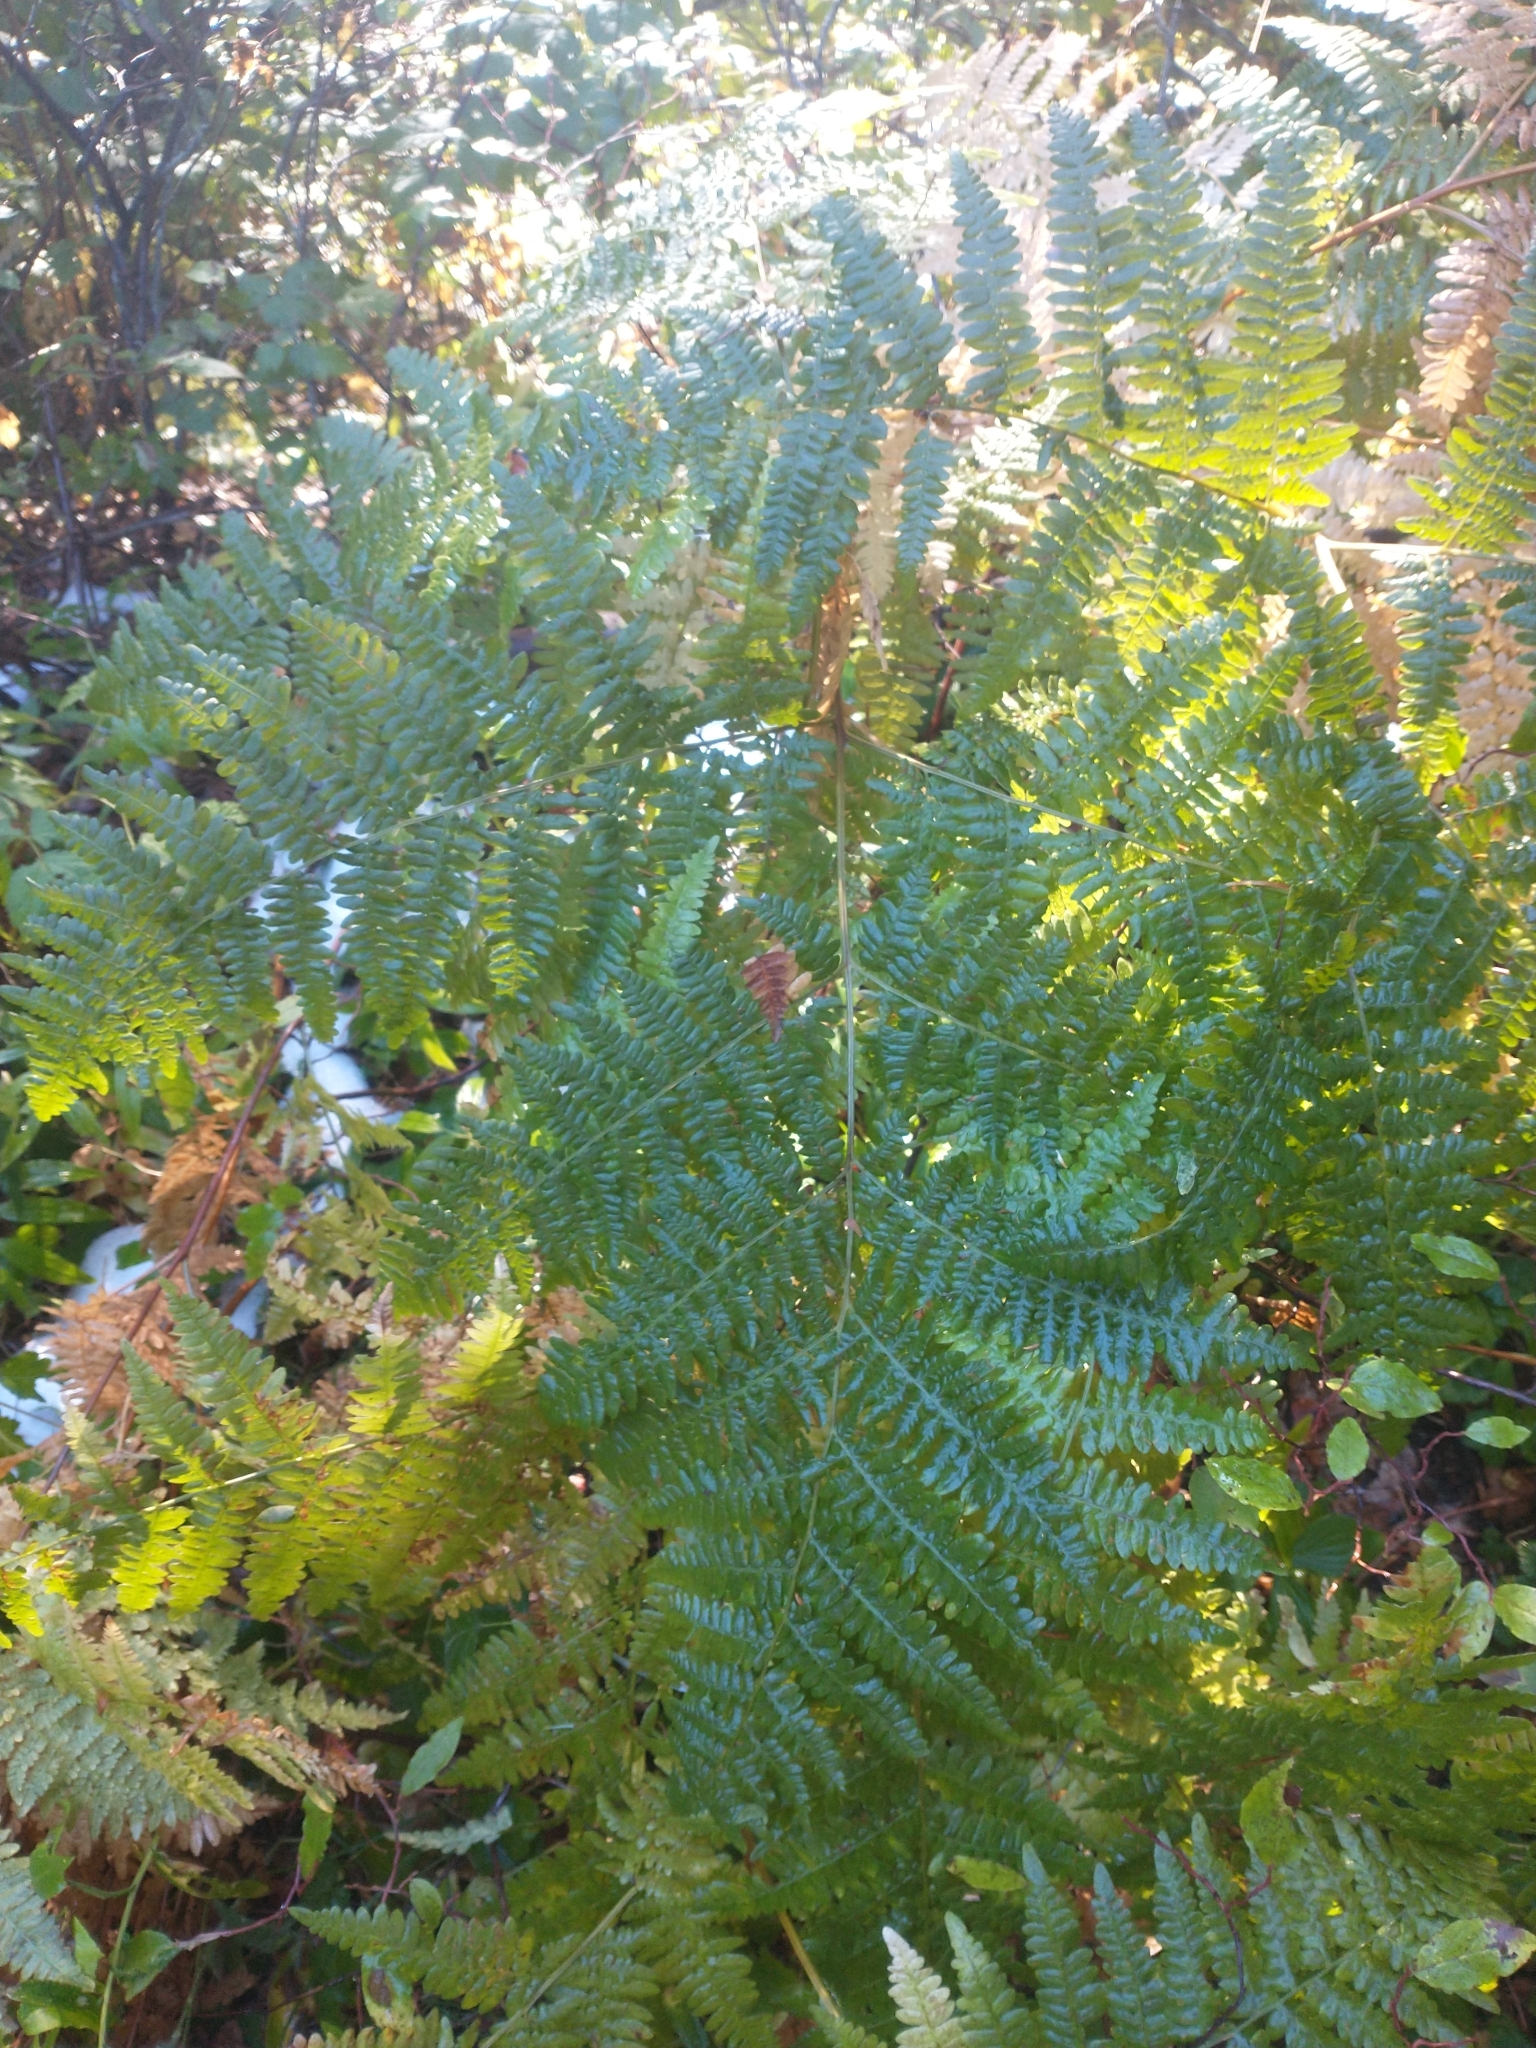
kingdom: Plantae
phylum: Tracheophyta
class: Polypodiopsida
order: Polypodiales
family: Dennstaedtiaceae
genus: Pteridium
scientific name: Pteridium aquilinum
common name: Bracken
